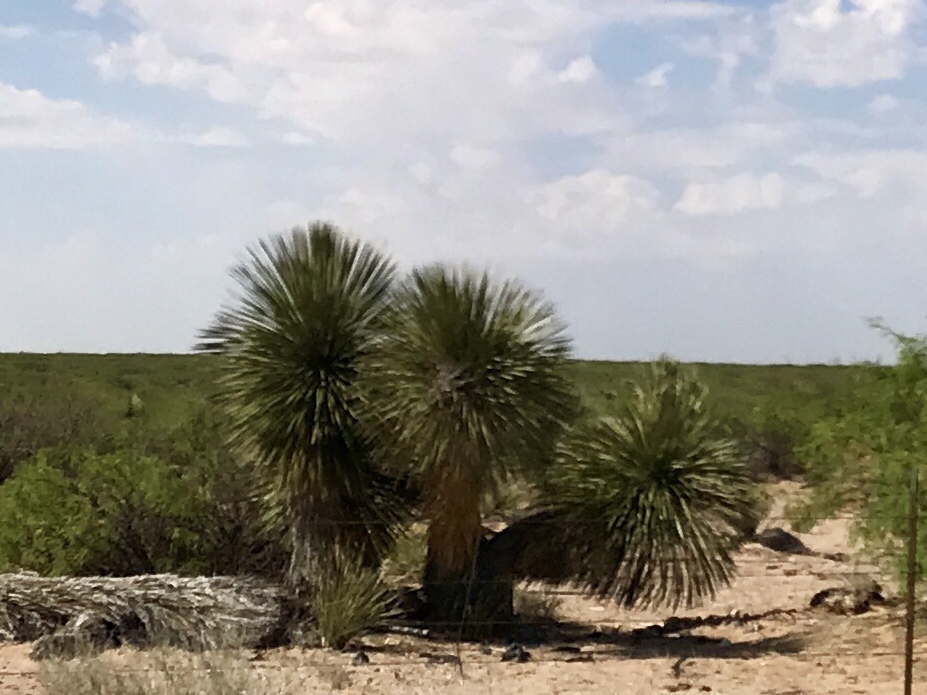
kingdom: Plantae
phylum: Tracheophyta
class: Liliopsida
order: Asparagales
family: Asparagaceae
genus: Yucca
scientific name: Yucca elata
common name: Palmella
